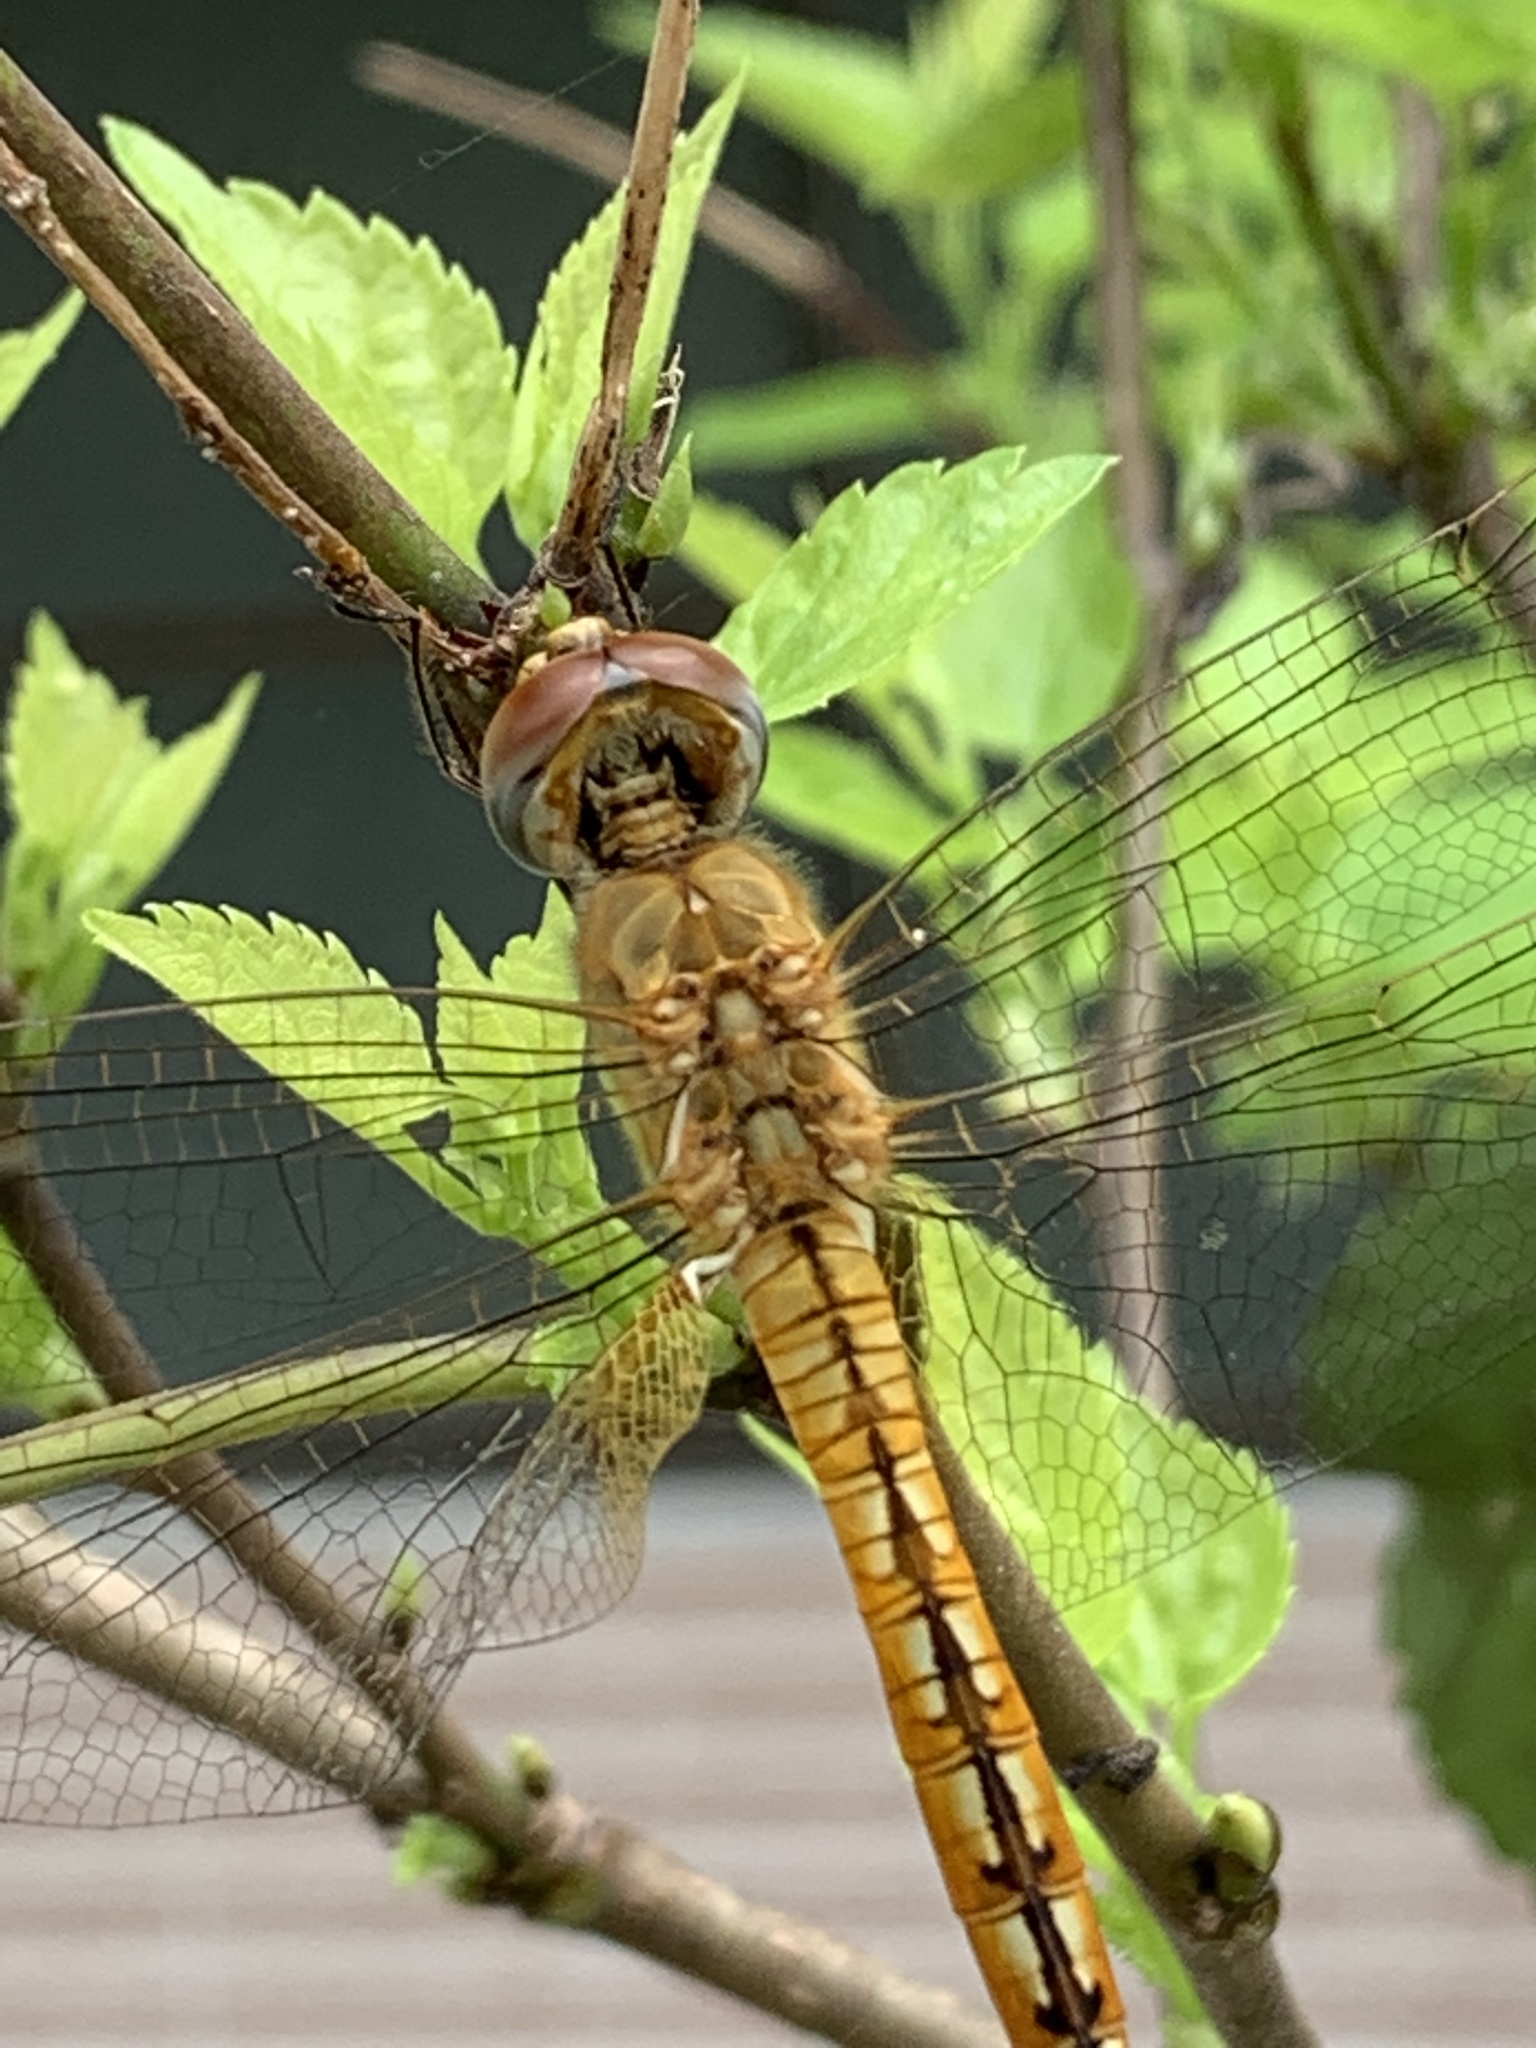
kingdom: Animalia
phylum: Arthropoda
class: Insecta
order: Odonata
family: Libellulidae
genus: Pantala
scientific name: Pantala flavescens
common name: Wandering glider
